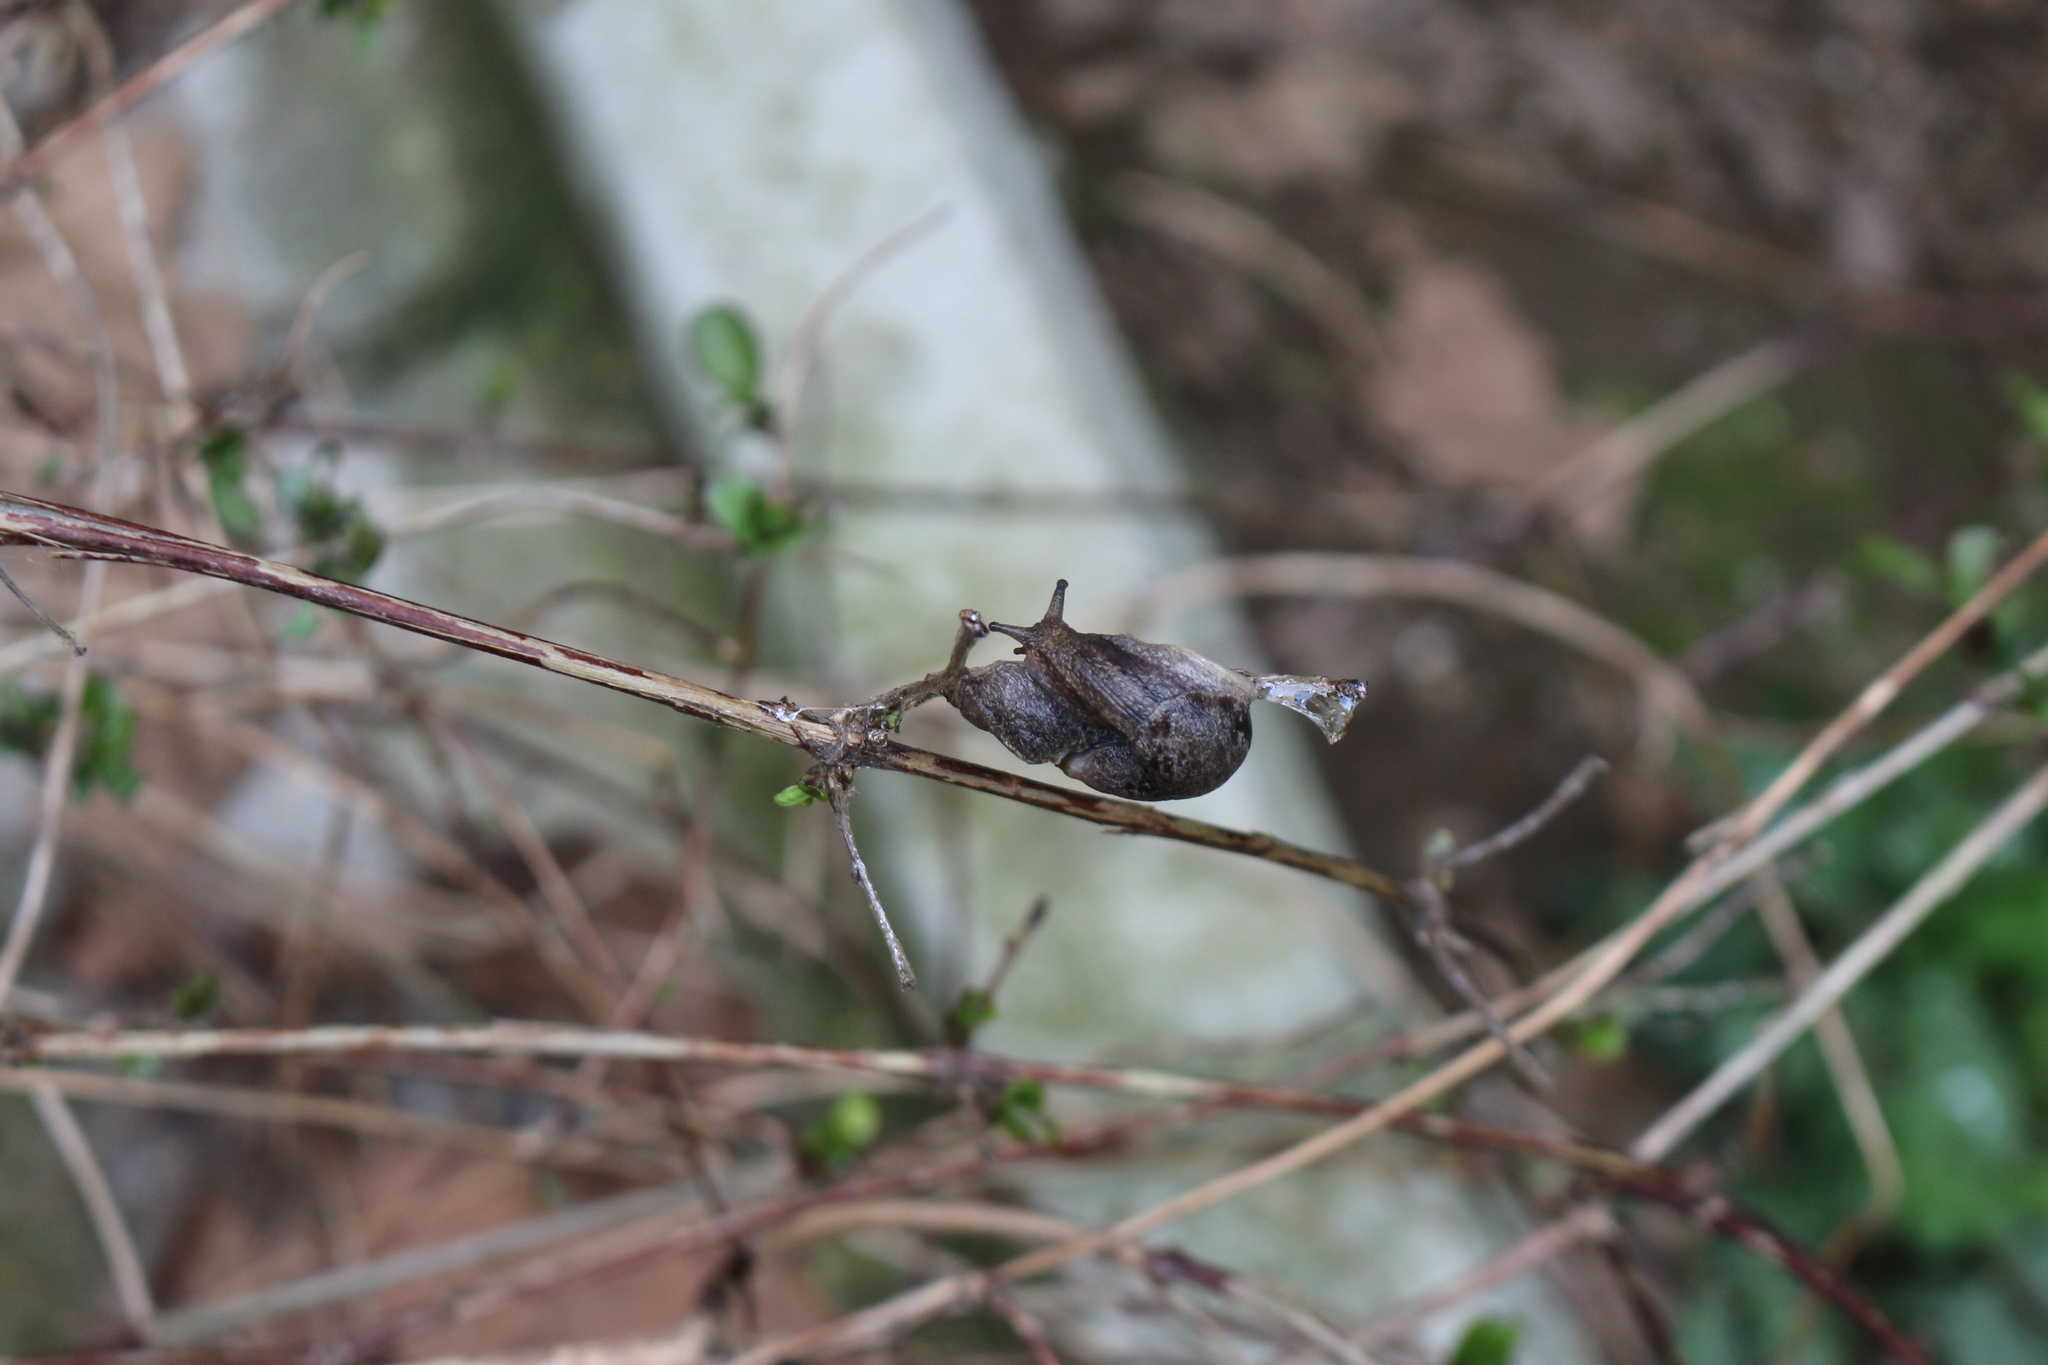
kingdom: Animalia
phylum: Mollusca
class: Gastropoda
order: Stylommatophora
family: Parmacellidae
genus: Drusia
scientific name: Drusia ibera
